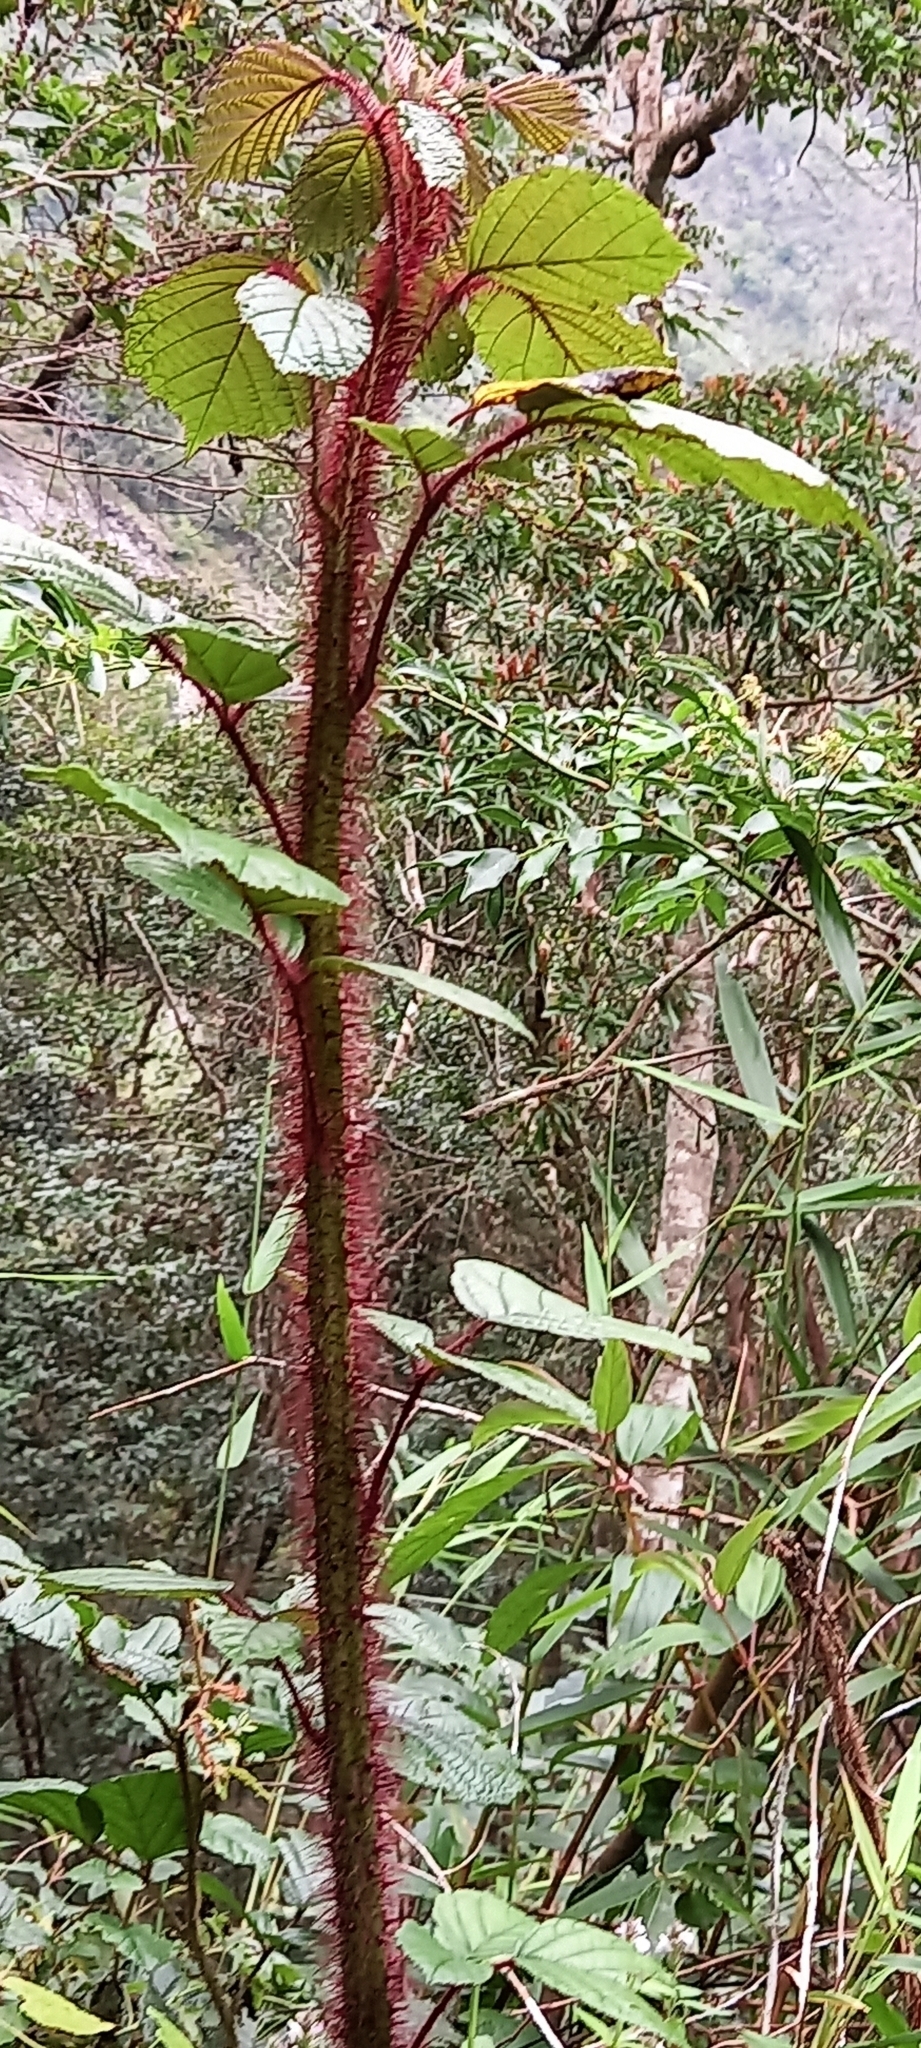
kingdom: Plantae
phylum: Tracheophyta
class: Magnoliopsida
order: Rosales
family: Rosaceae
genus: Rubus
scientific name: Rubus ellipticus
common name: Cheeseberry
